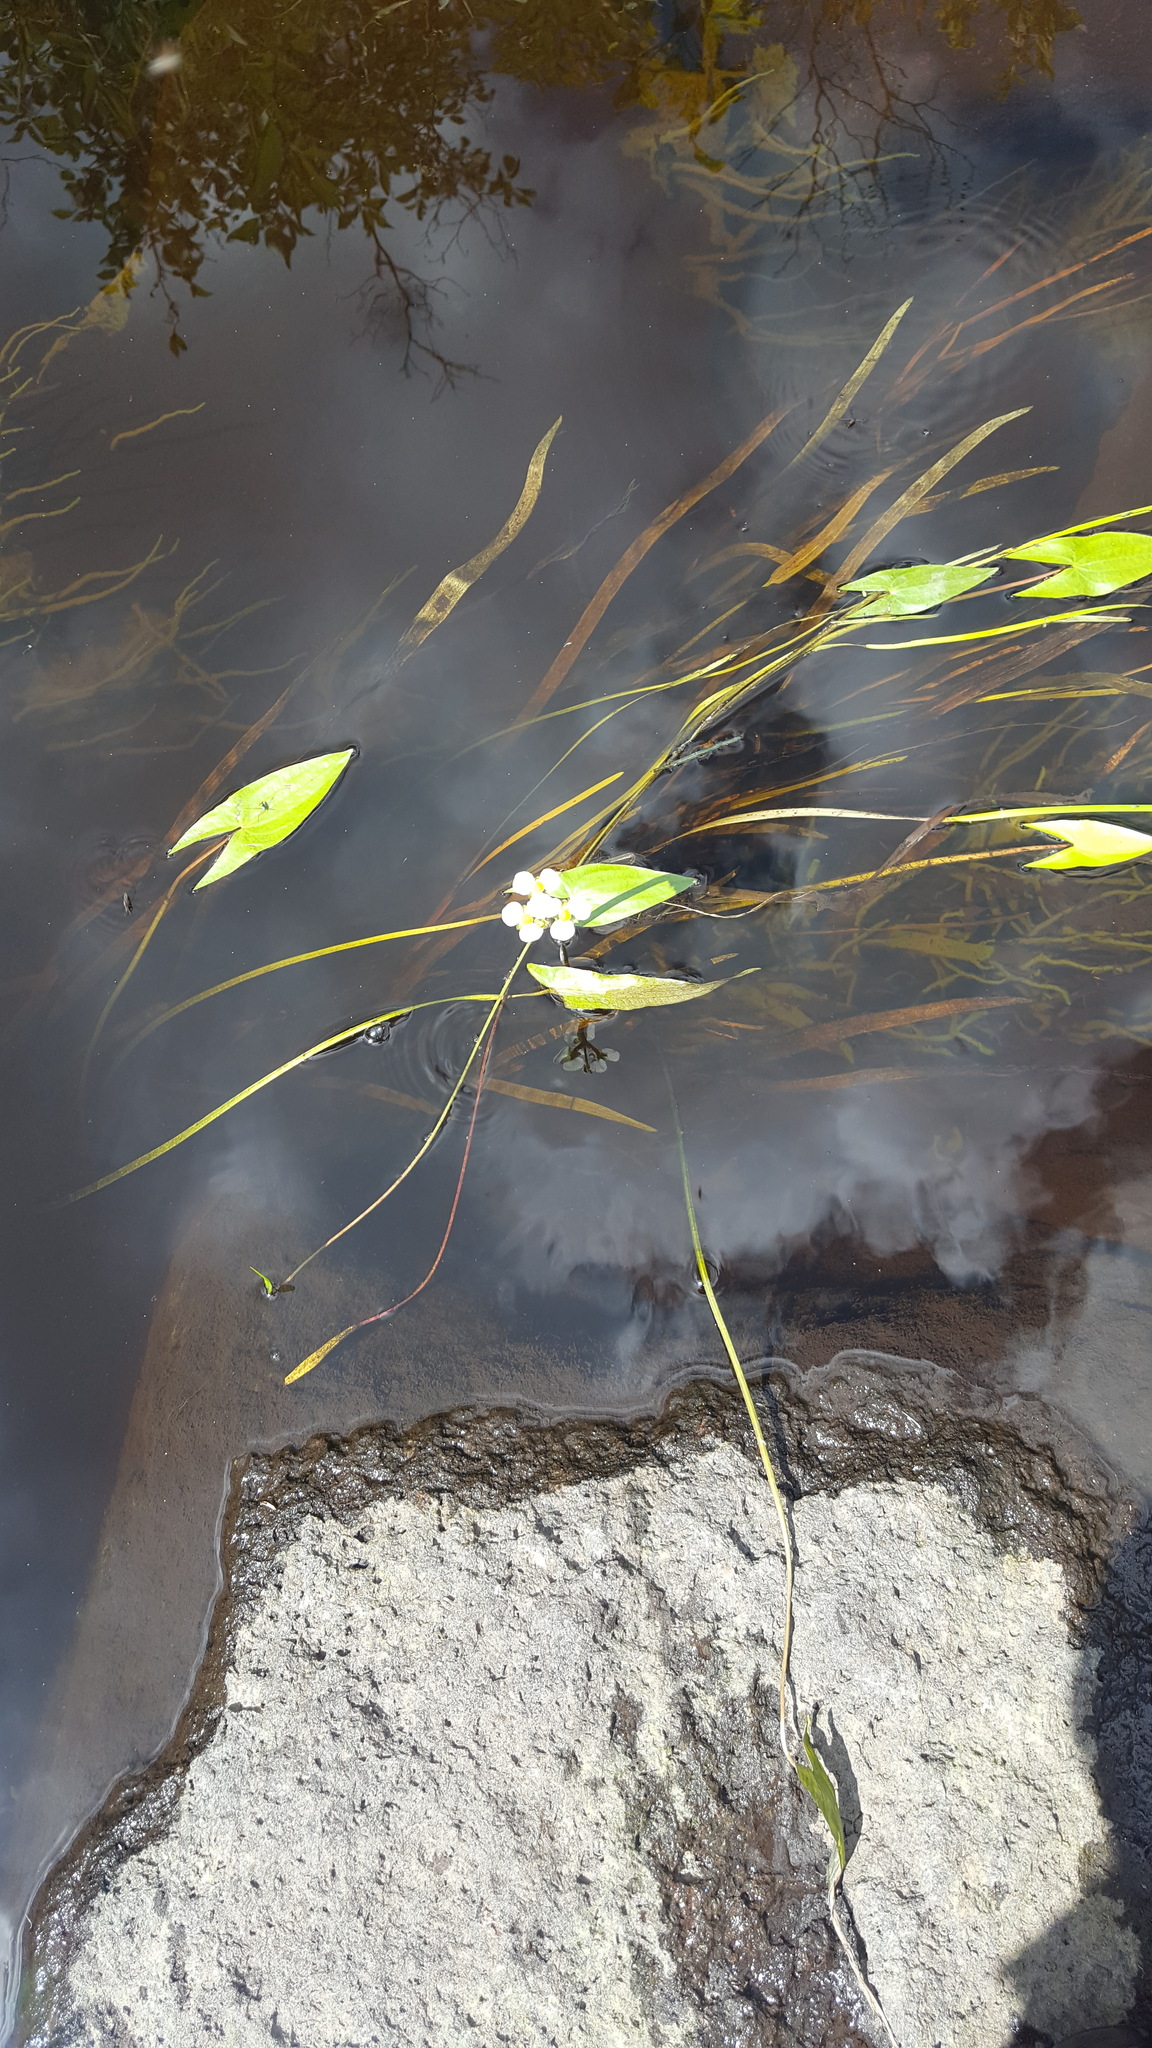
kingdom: Plantae
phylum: Tracheophyta
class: Liliopsida
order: Alismatales
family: Alismataceae
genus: Sagittaria
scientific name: Sagittaria cuneata
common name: Northern arrowhead
